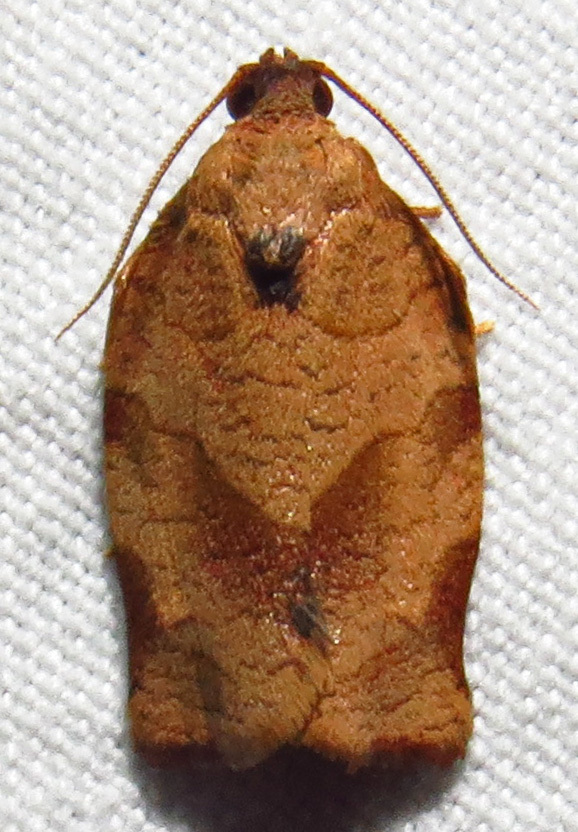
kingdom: Animalia
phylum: Arthropoda
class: Insecta
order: Lepidoptera
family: Tortricidae
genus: Choristoneura
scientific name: Choristoneura rosaceana
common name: Oblique-banded leafroller moth
